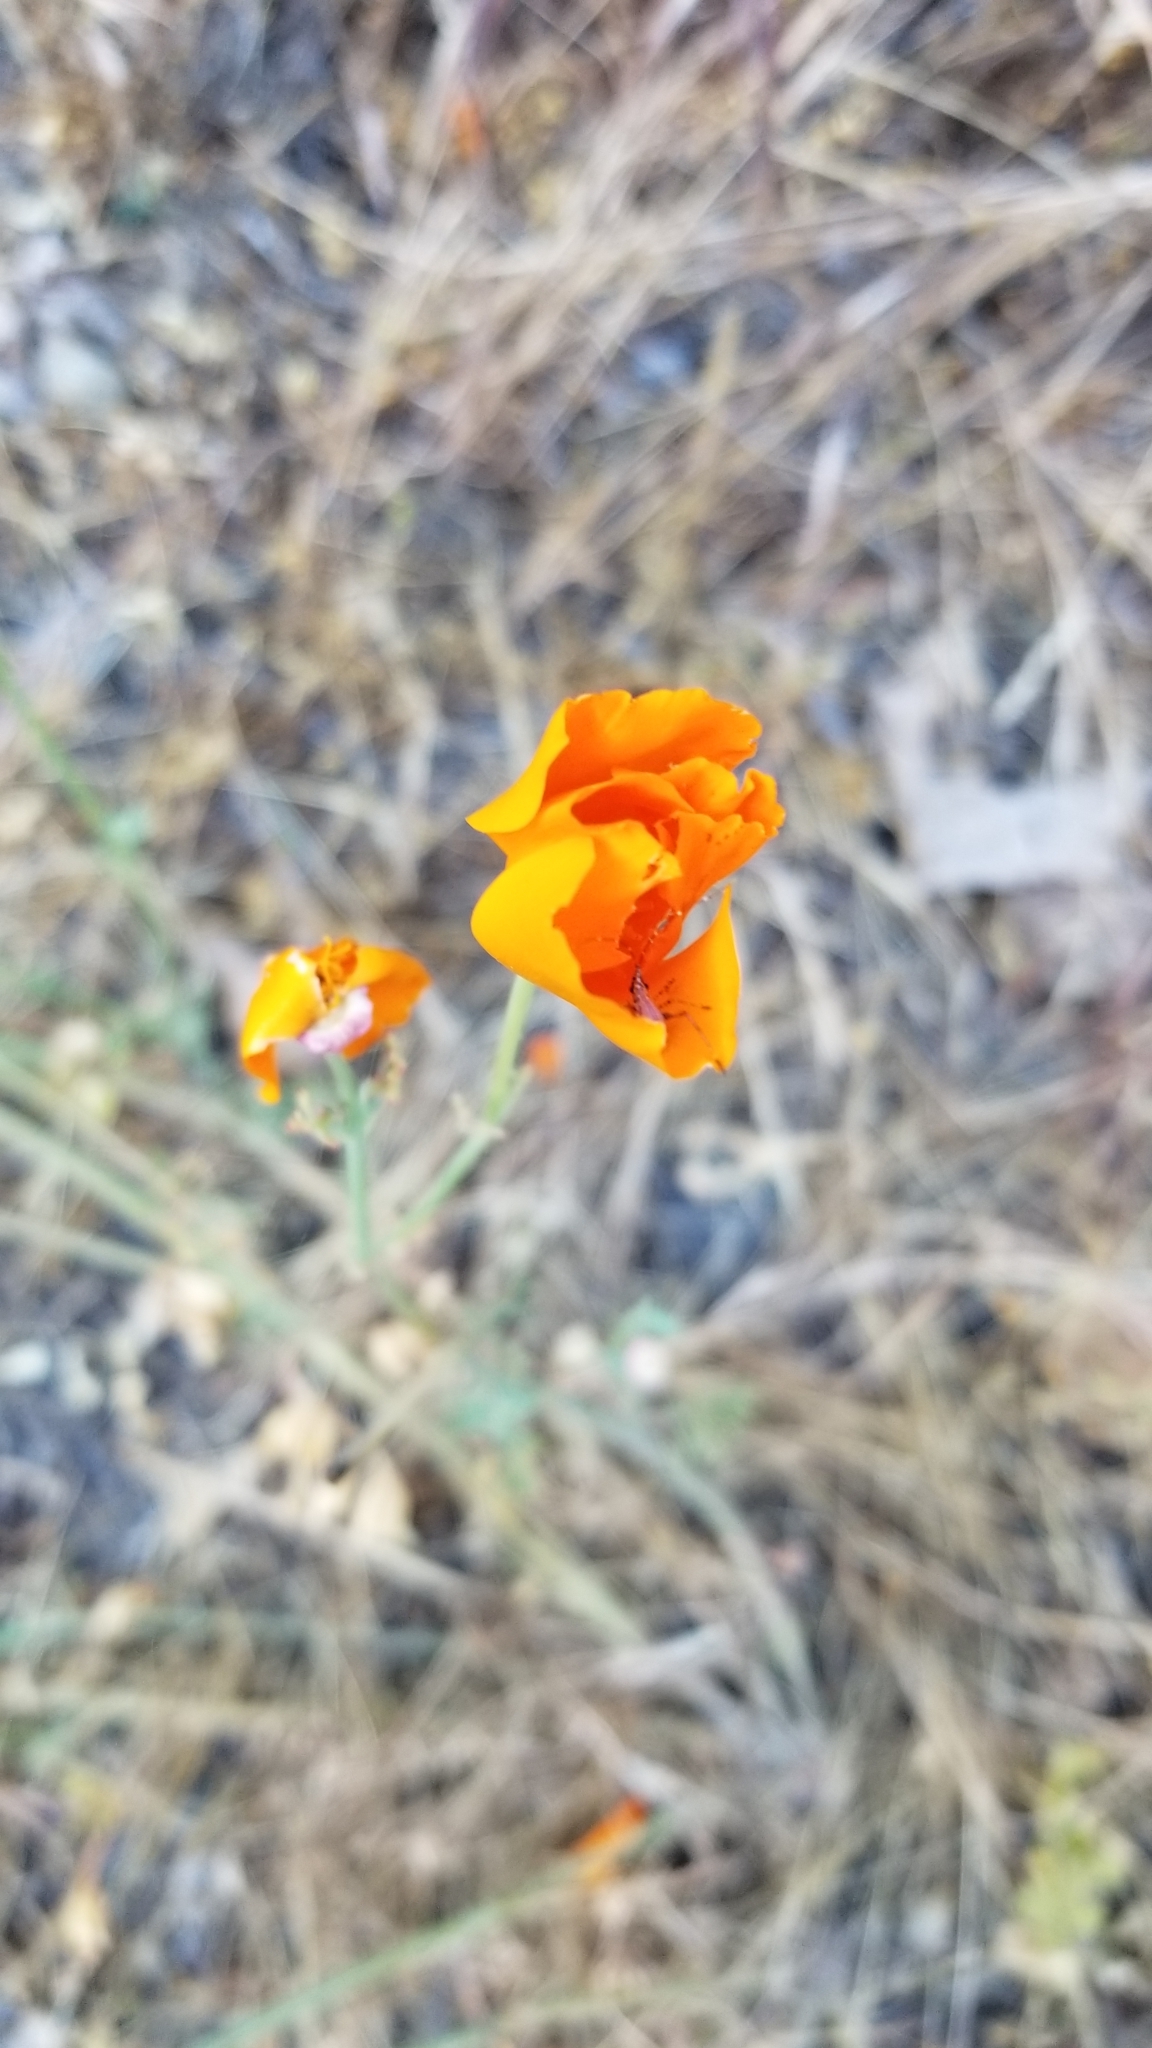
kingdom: Plantae
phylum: Tracheophyta
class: Magnoliopsida
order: Ranunculales
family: Papaveraceae
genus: Eschscholzia
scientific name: Eschscholzia californica
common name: California poppy
